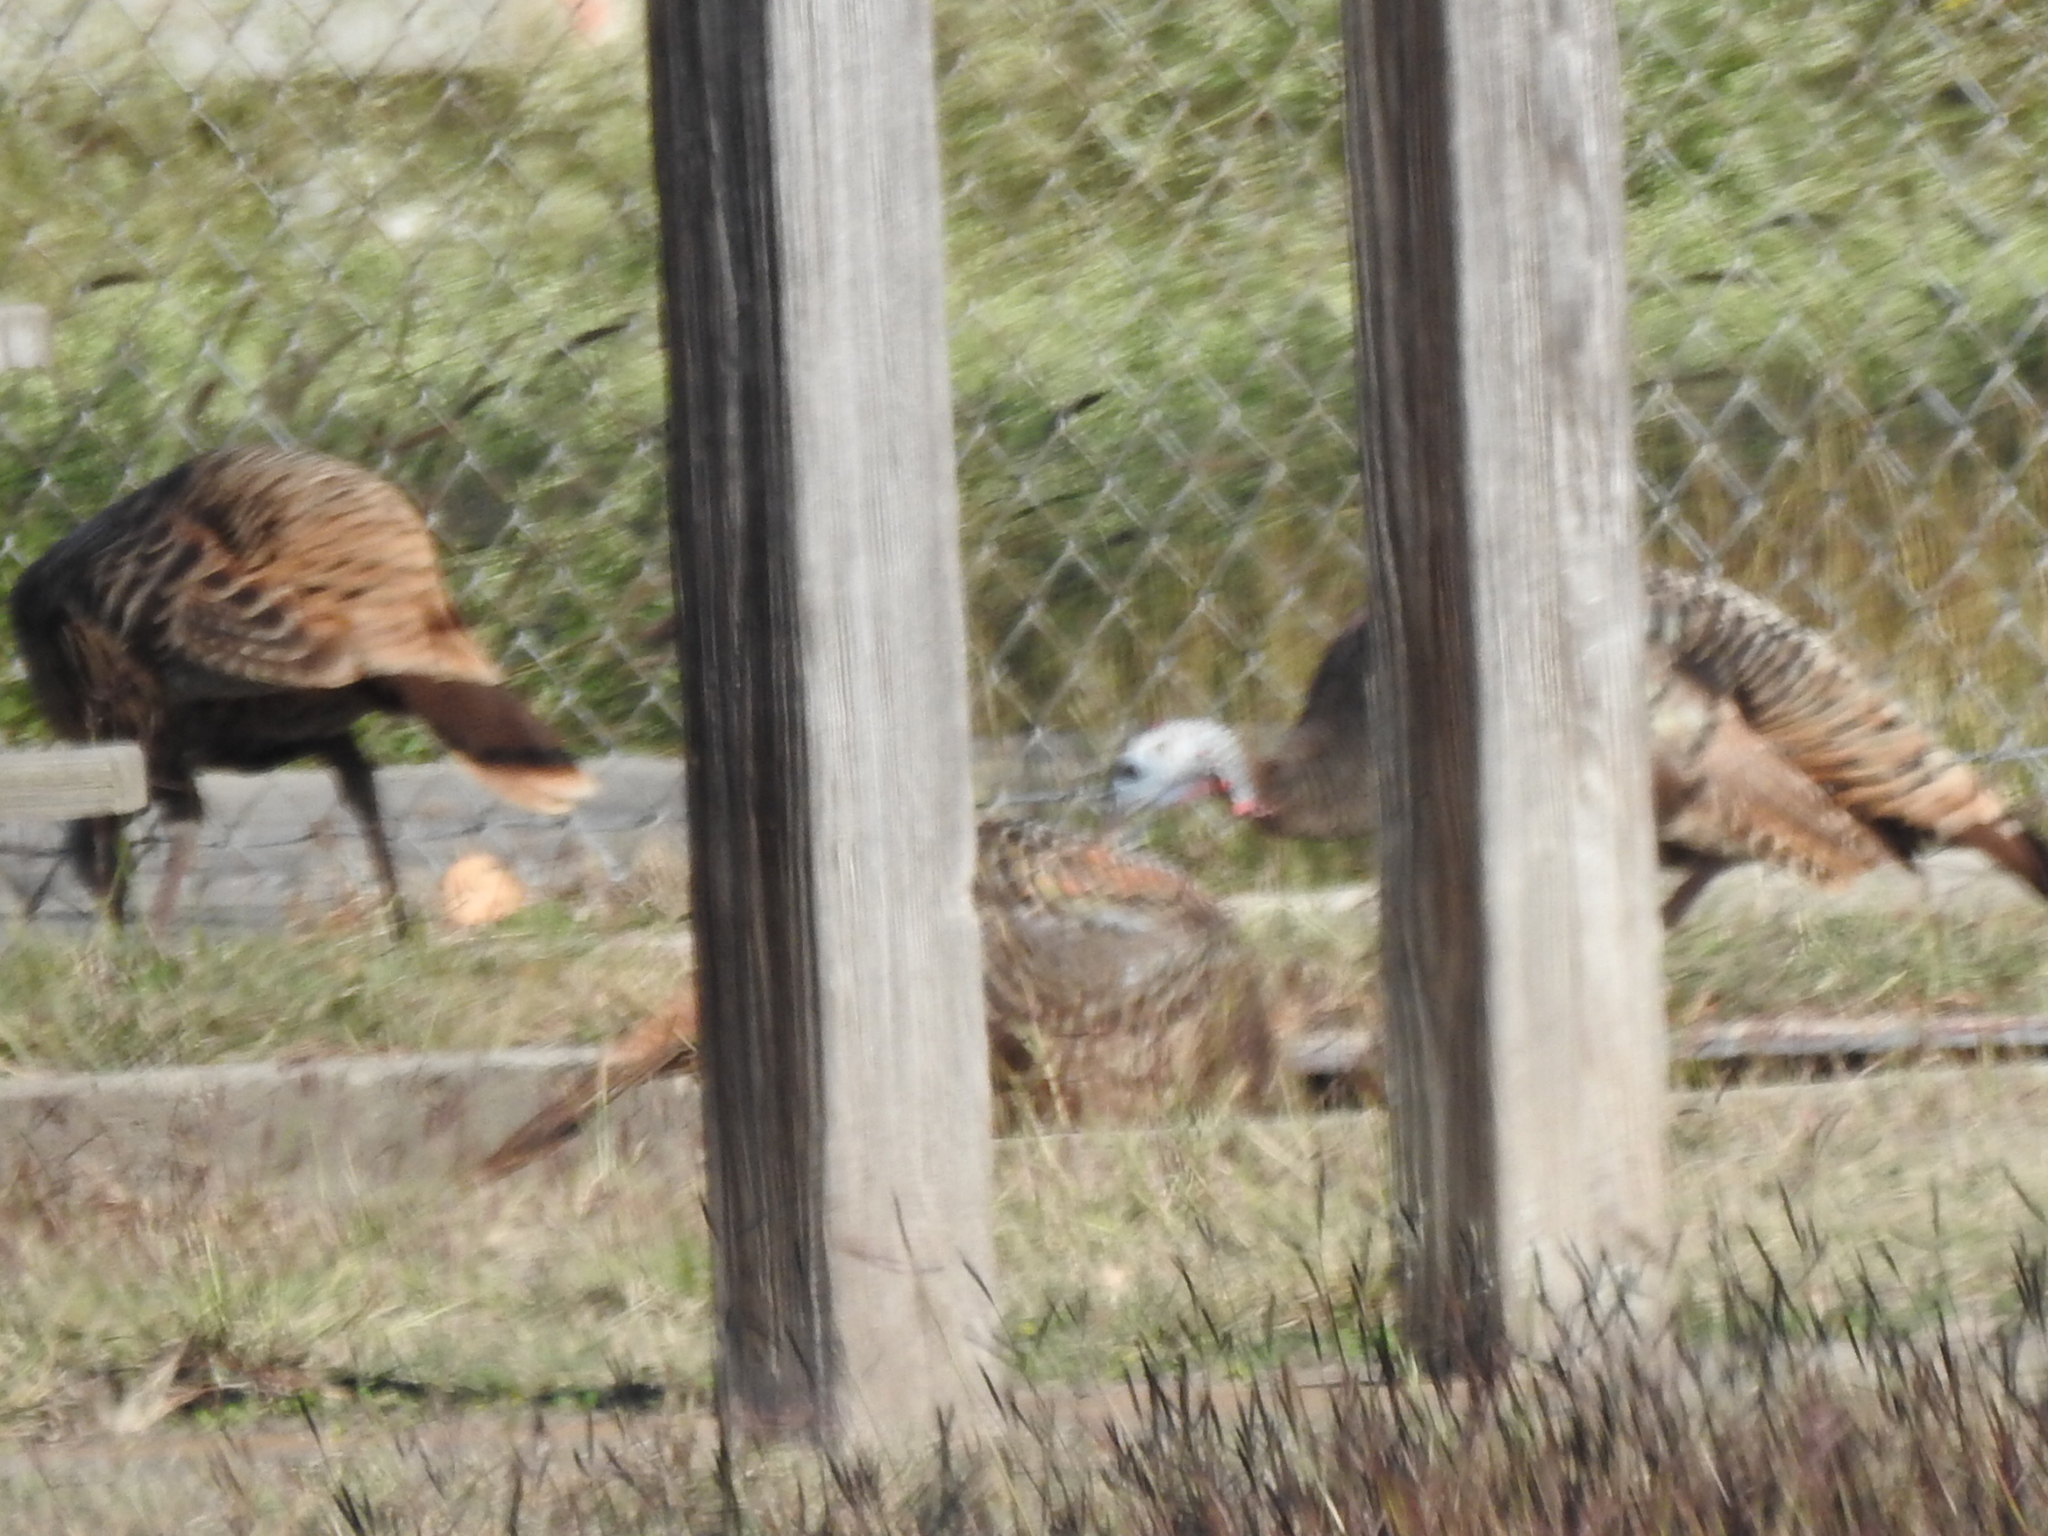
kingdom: Animalia
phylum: Chordata
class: Aves
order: Galliformes
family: Phasianidae
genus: Meleagris
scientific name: Meleagris gallopavo
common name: Wild turkey
